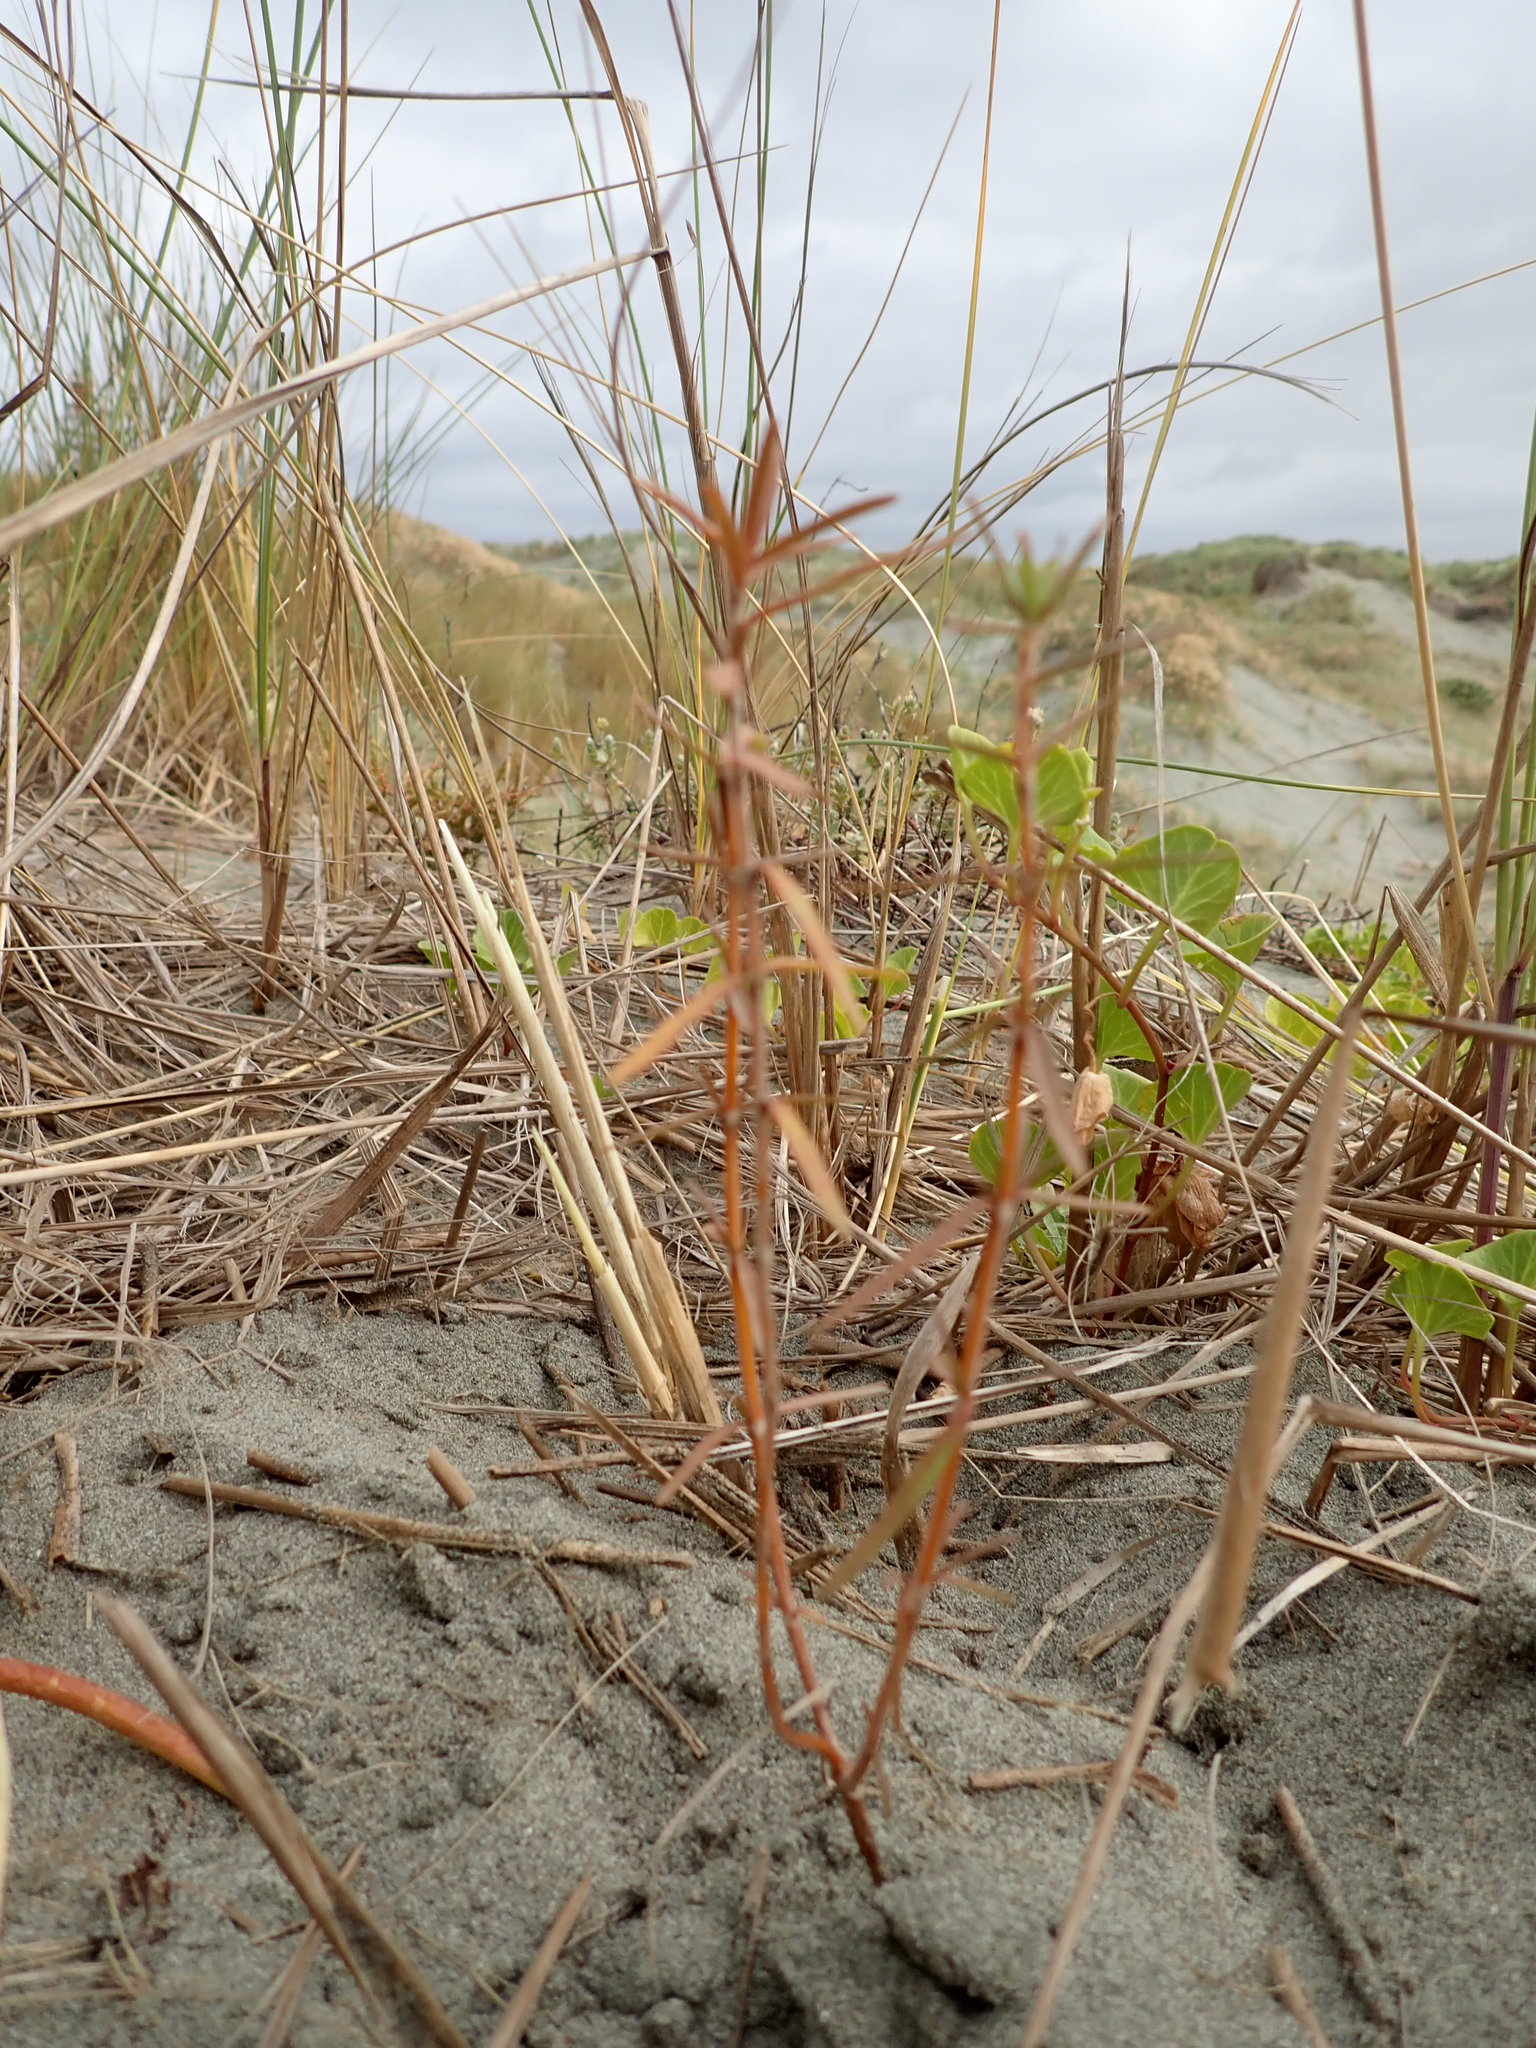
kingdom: Plantae
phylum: Tracheophyta
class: Magnoliopsida
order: Gentianales
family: Rubiaceae
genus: Coprosma
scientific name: Coprosma acerosa
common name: Sand coprosma
